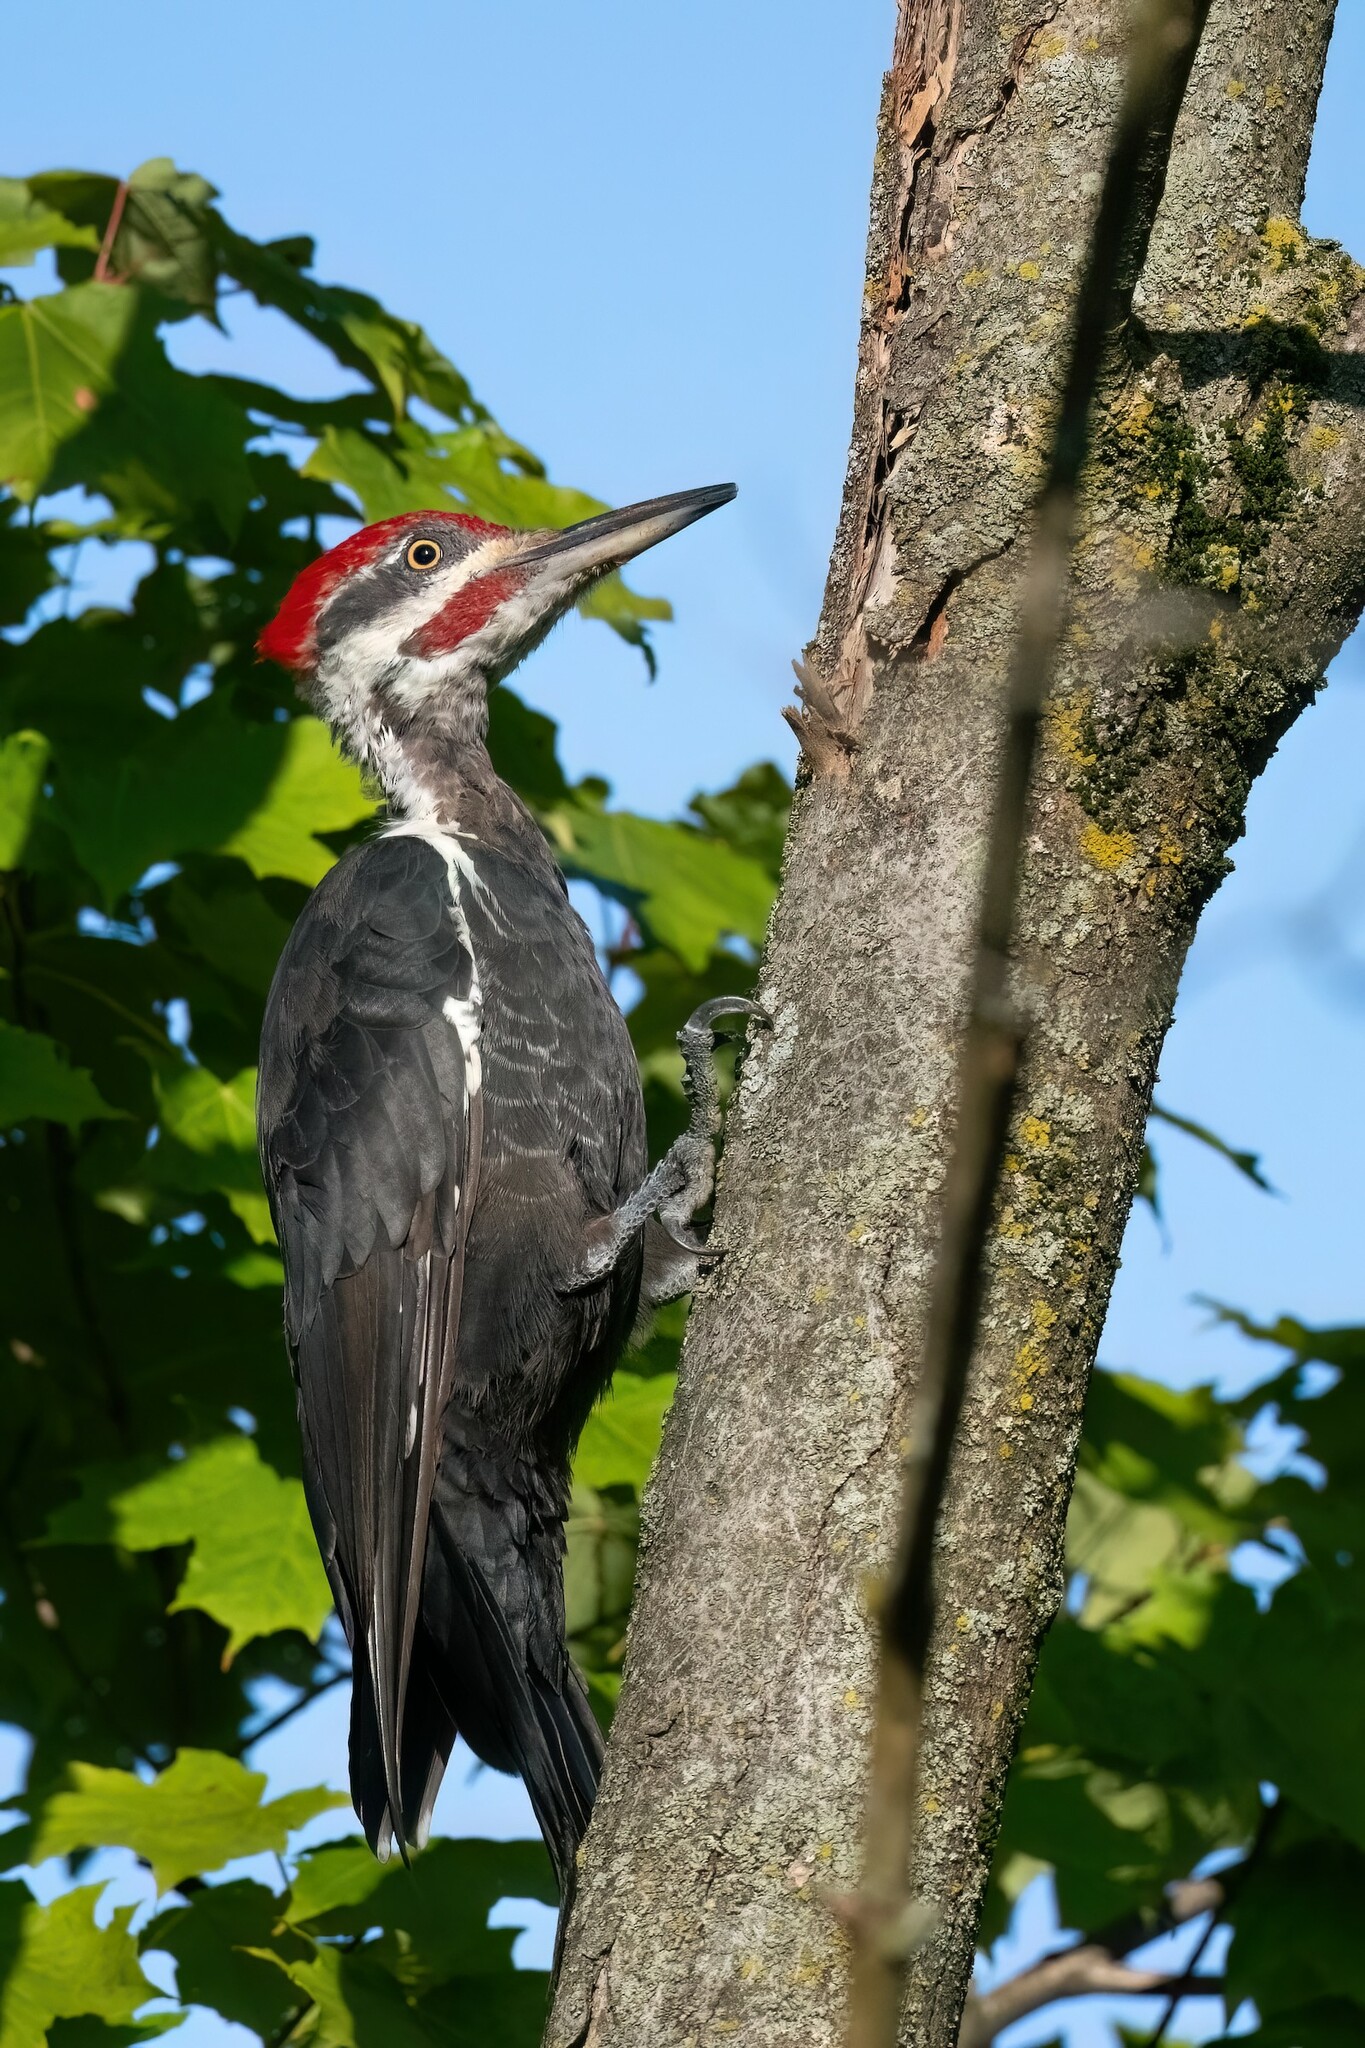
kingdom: Animalia
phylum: Chordata
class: Aves
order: Piciformes
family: Picidae
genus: Dryocopus
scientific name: Dryocopus pileatus
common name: Pileated woodpecker
